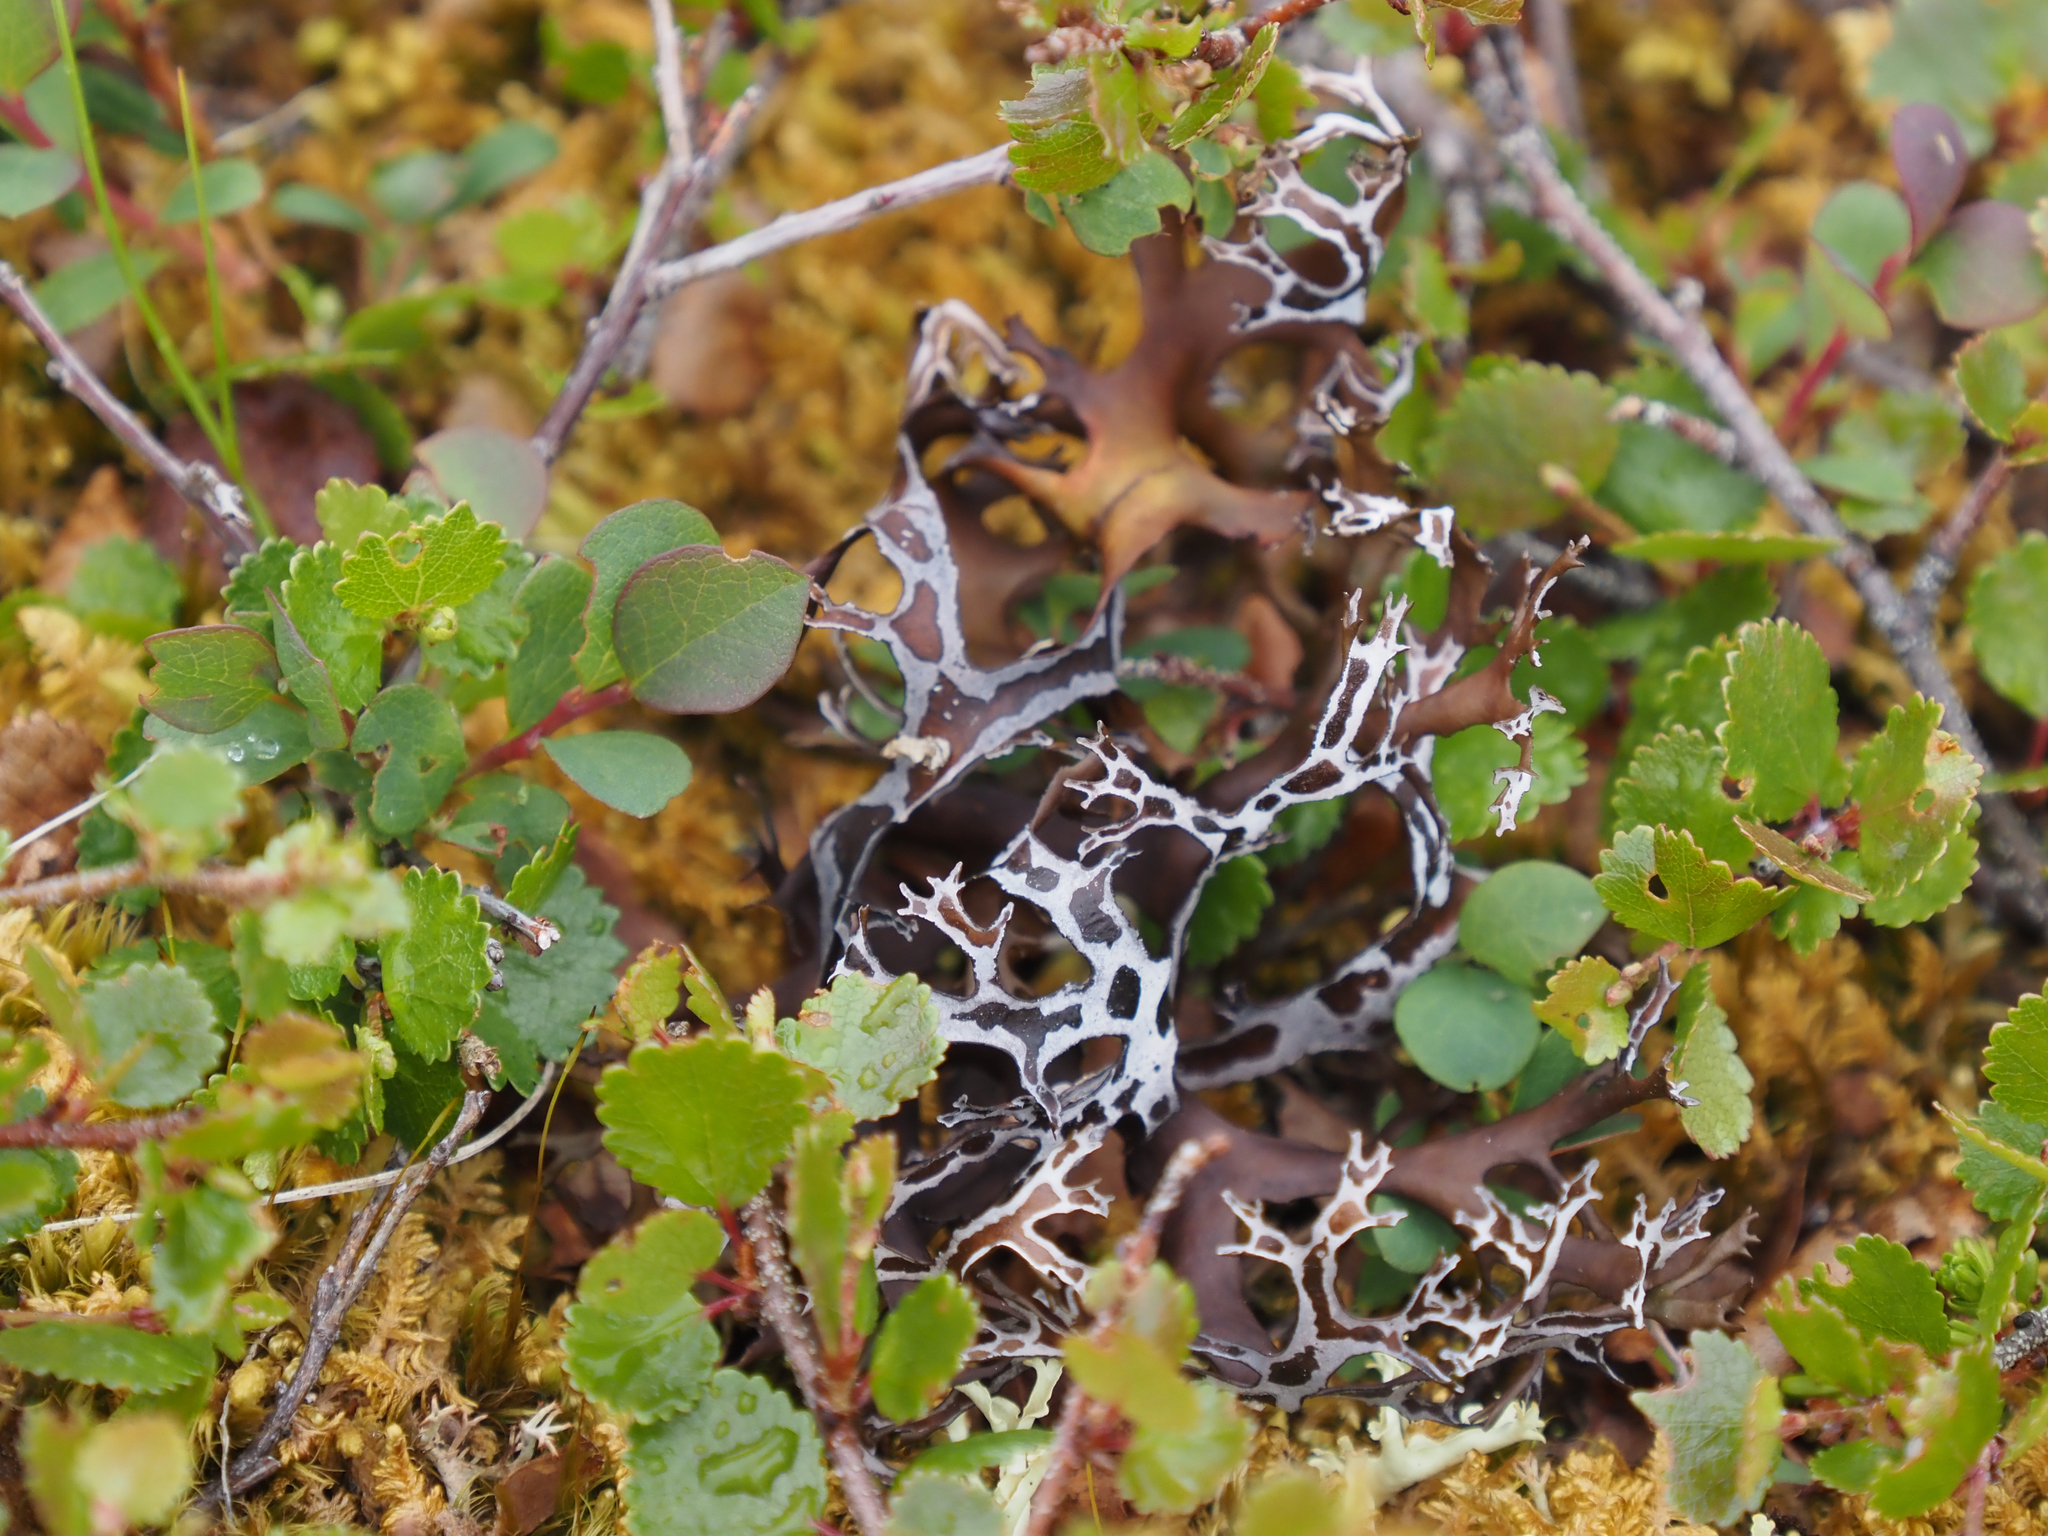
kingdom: Fungi
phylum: Ascomycota
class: Lecanoromycetes
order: Lecanorales
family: Parmeliaceae
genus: Nephromopsis
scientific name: Nephromopsis richardsonii
